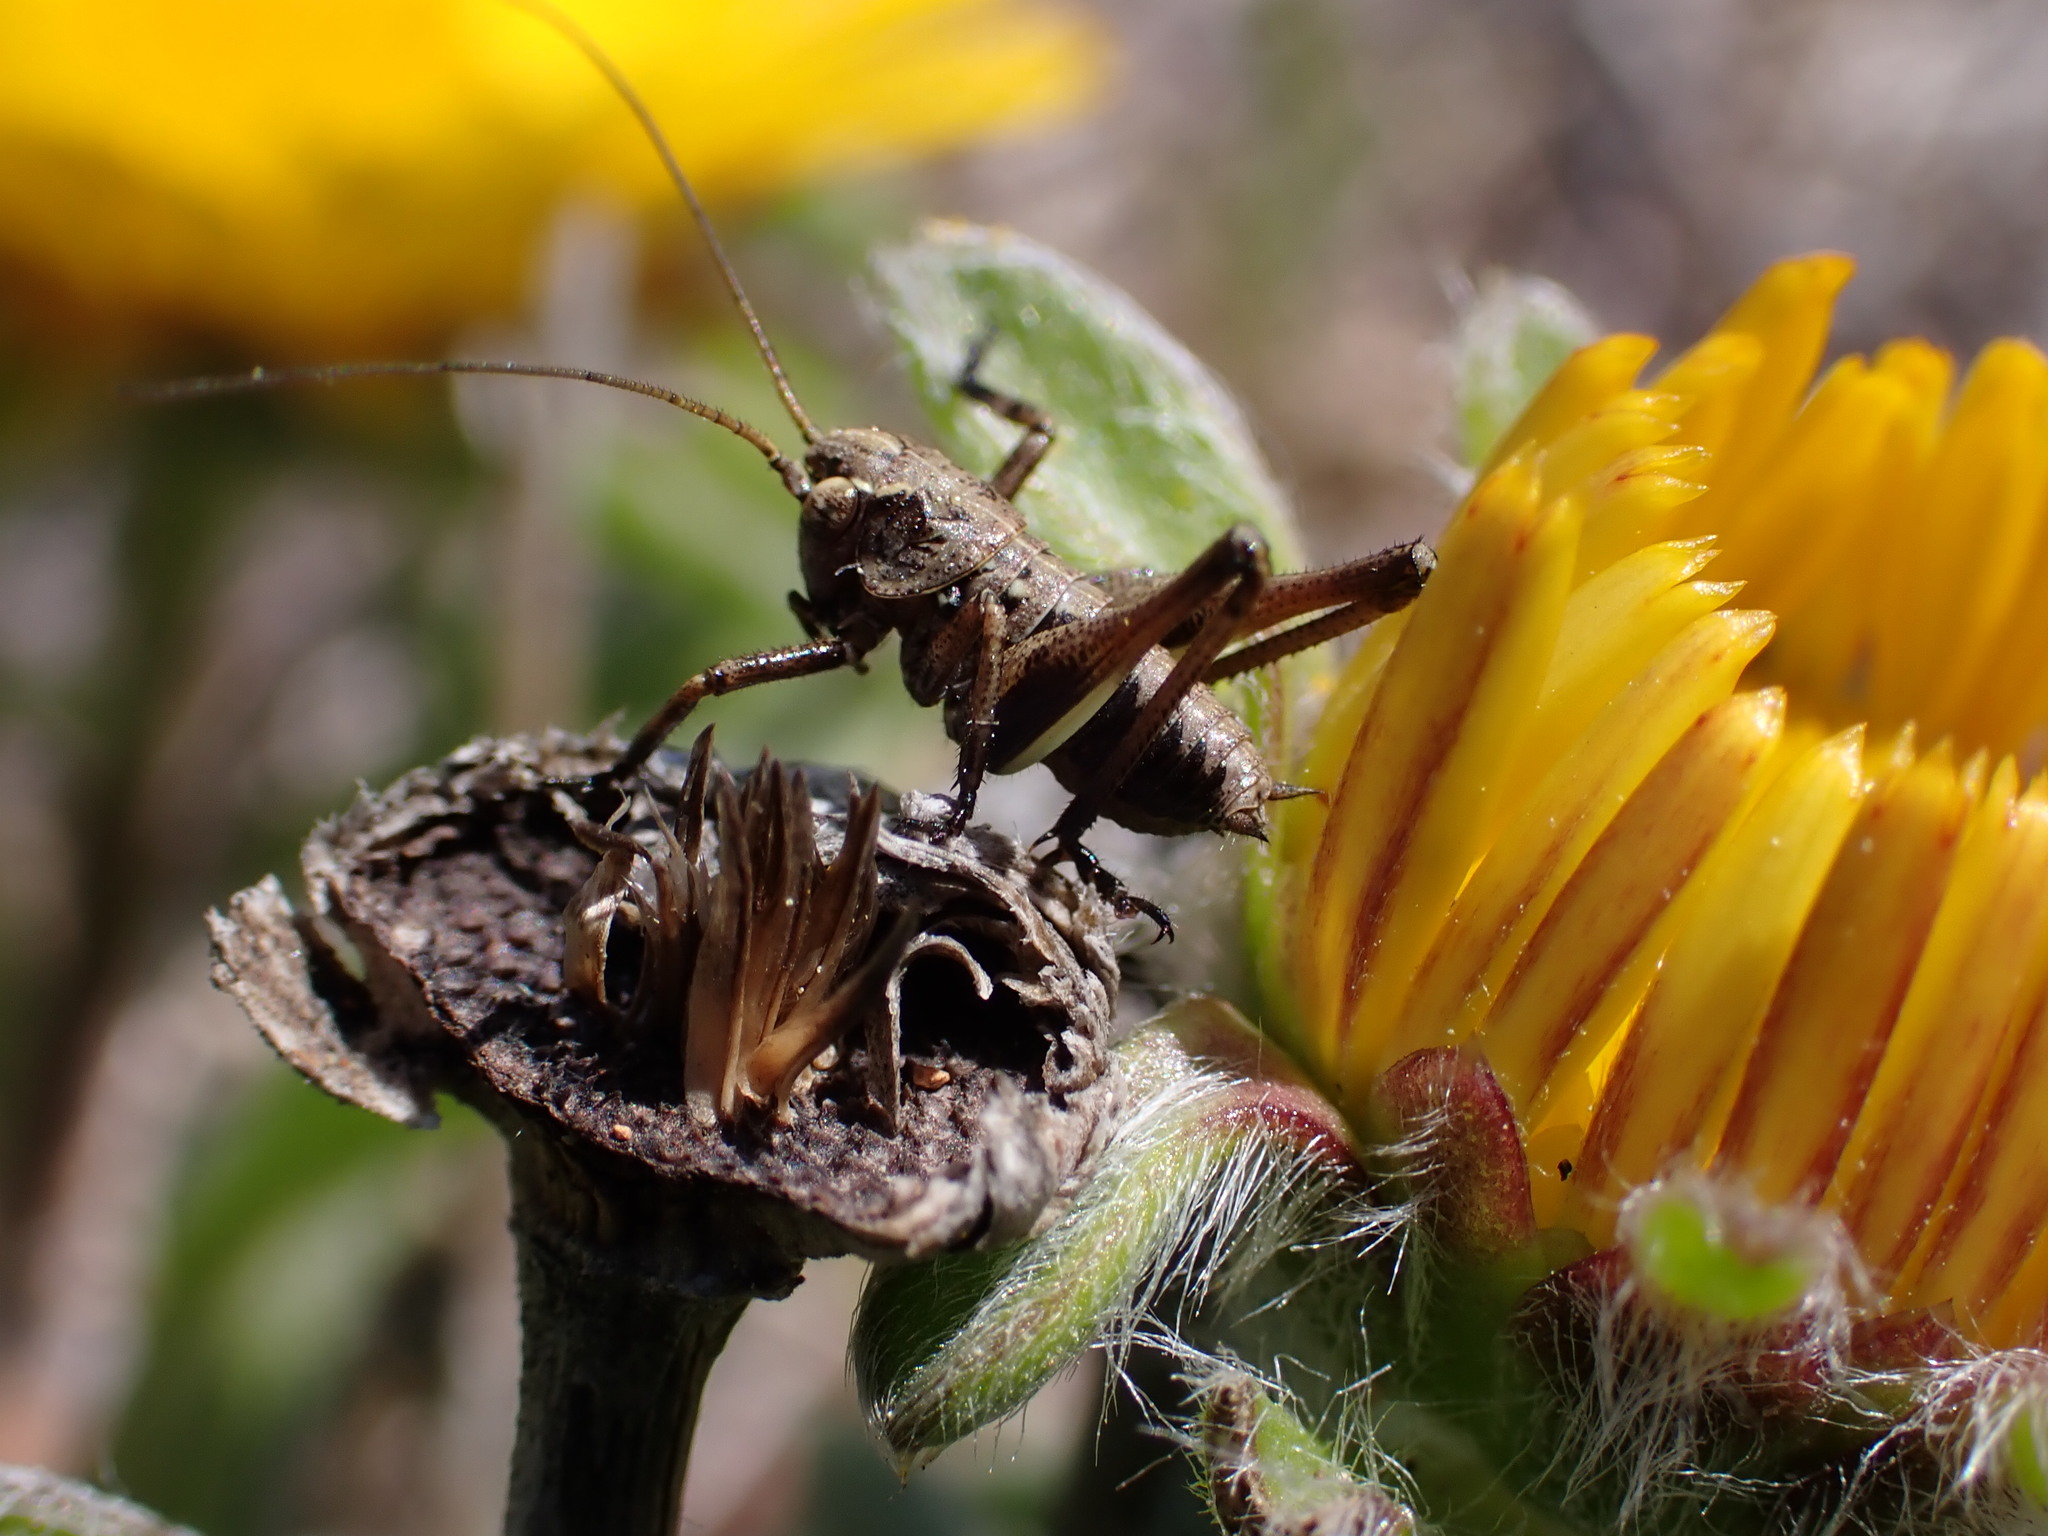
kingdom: Animalia
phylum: Arthropoda
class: Insecta
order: Orthoptera
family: Tettigoniidae
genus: Decticus
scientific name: Decticus albifrons
